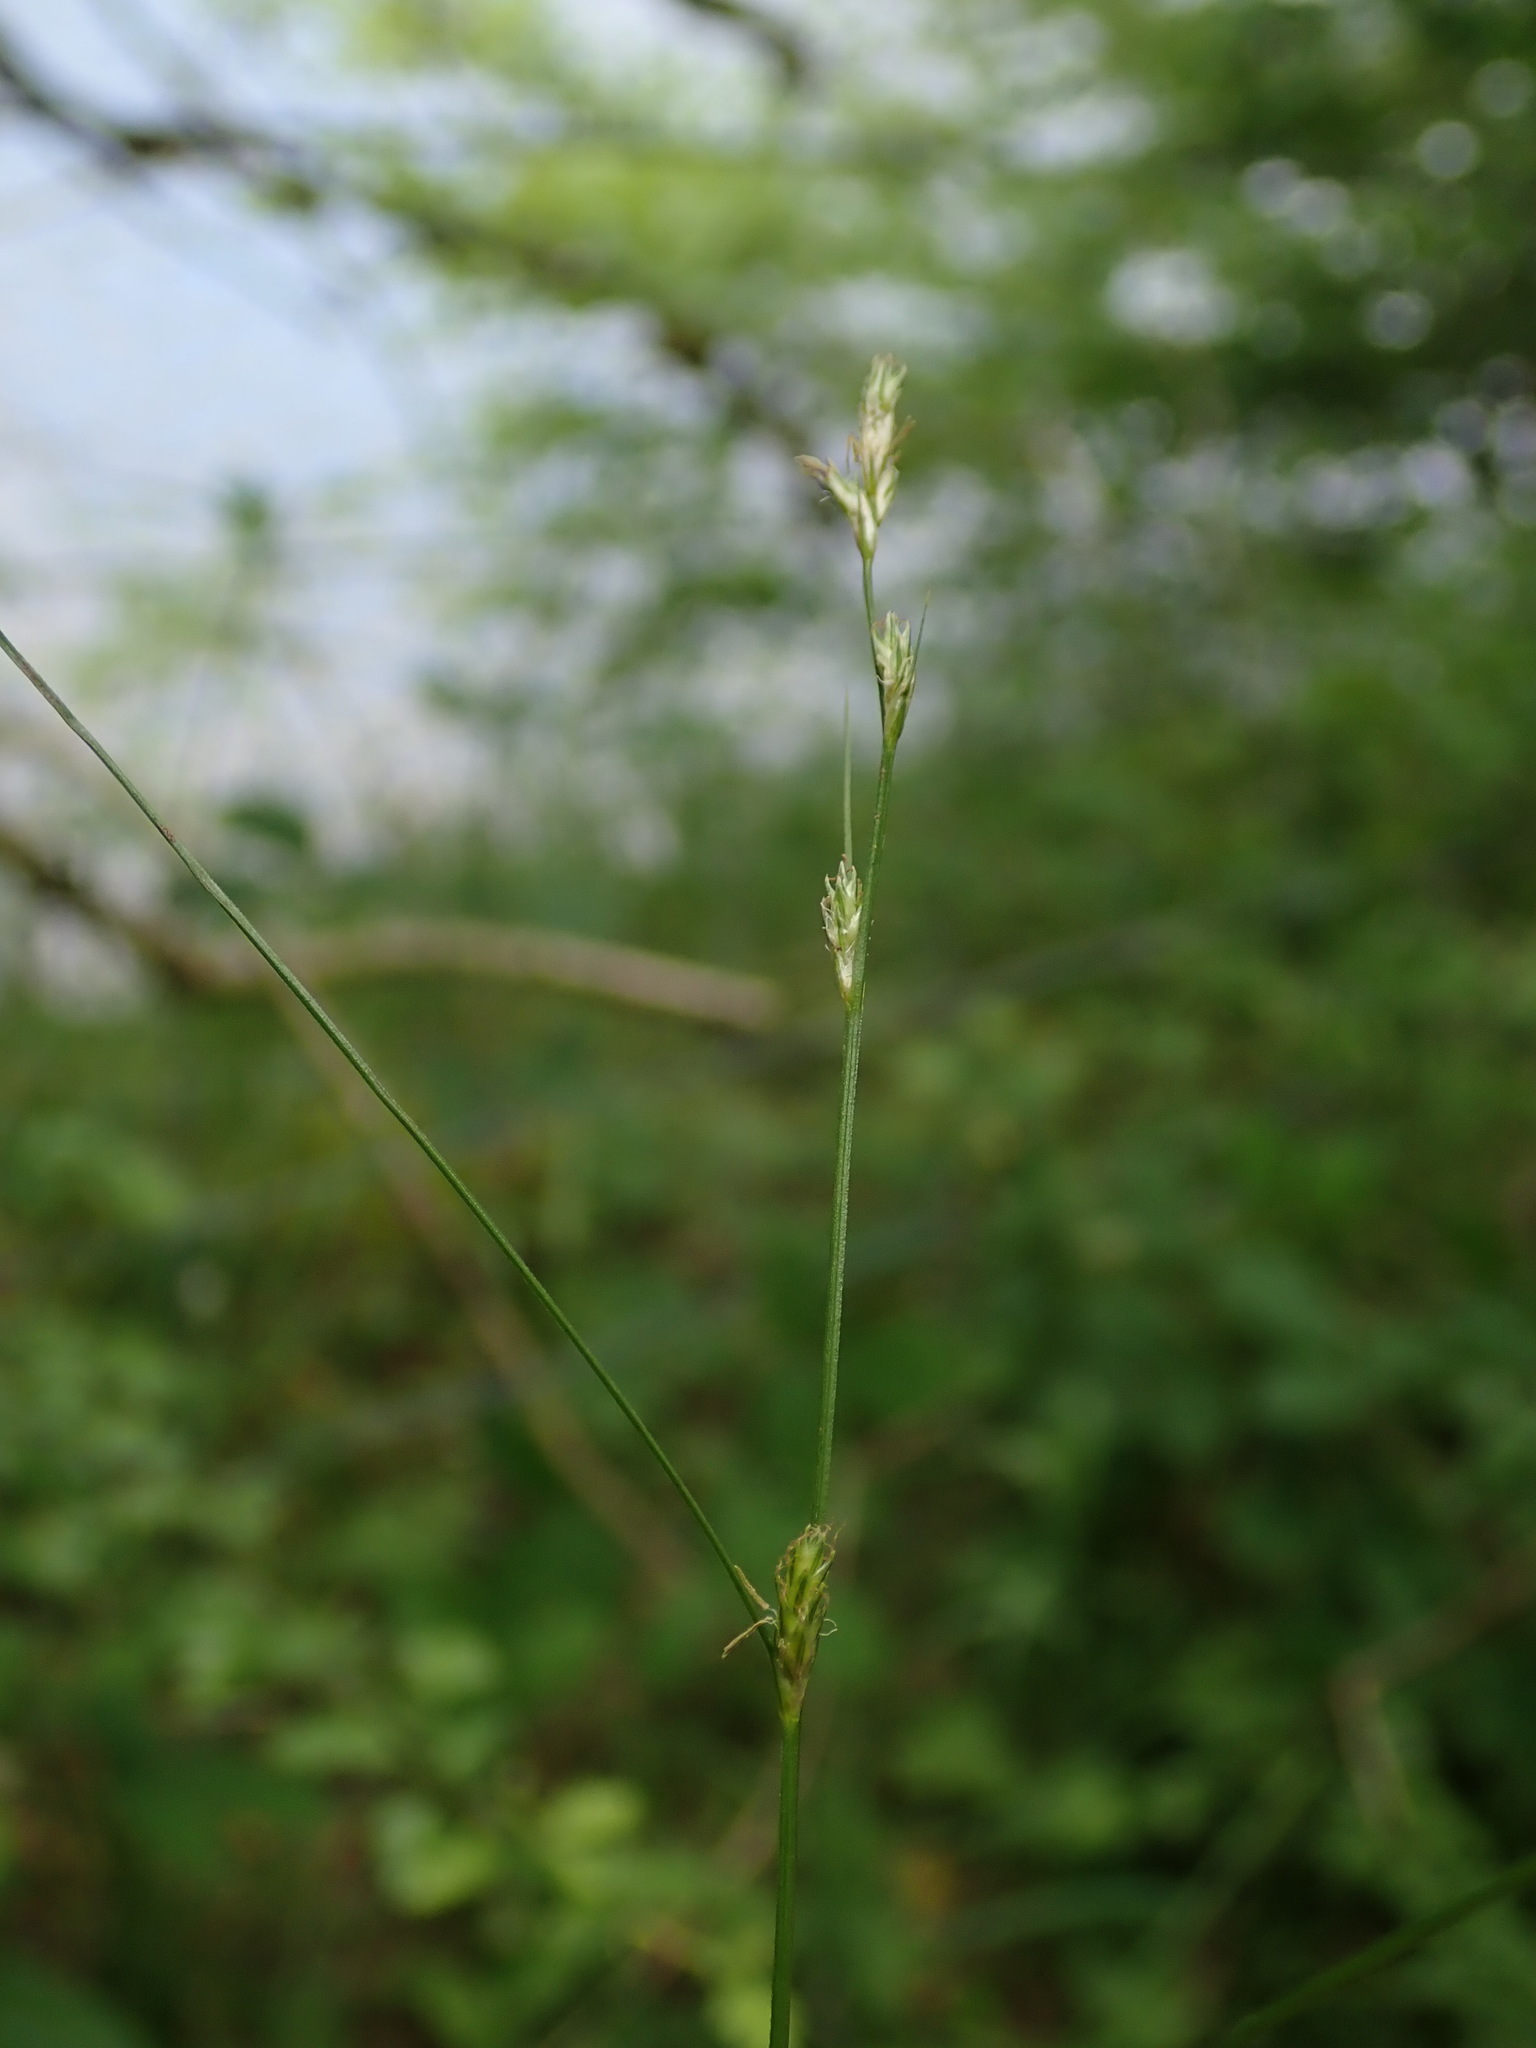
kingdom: Plantae
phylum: Tracheophyta
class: Liliopsida
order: Poales
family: Cyperaceae
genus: Carex
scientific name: Carex remota
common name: Remote sedge
